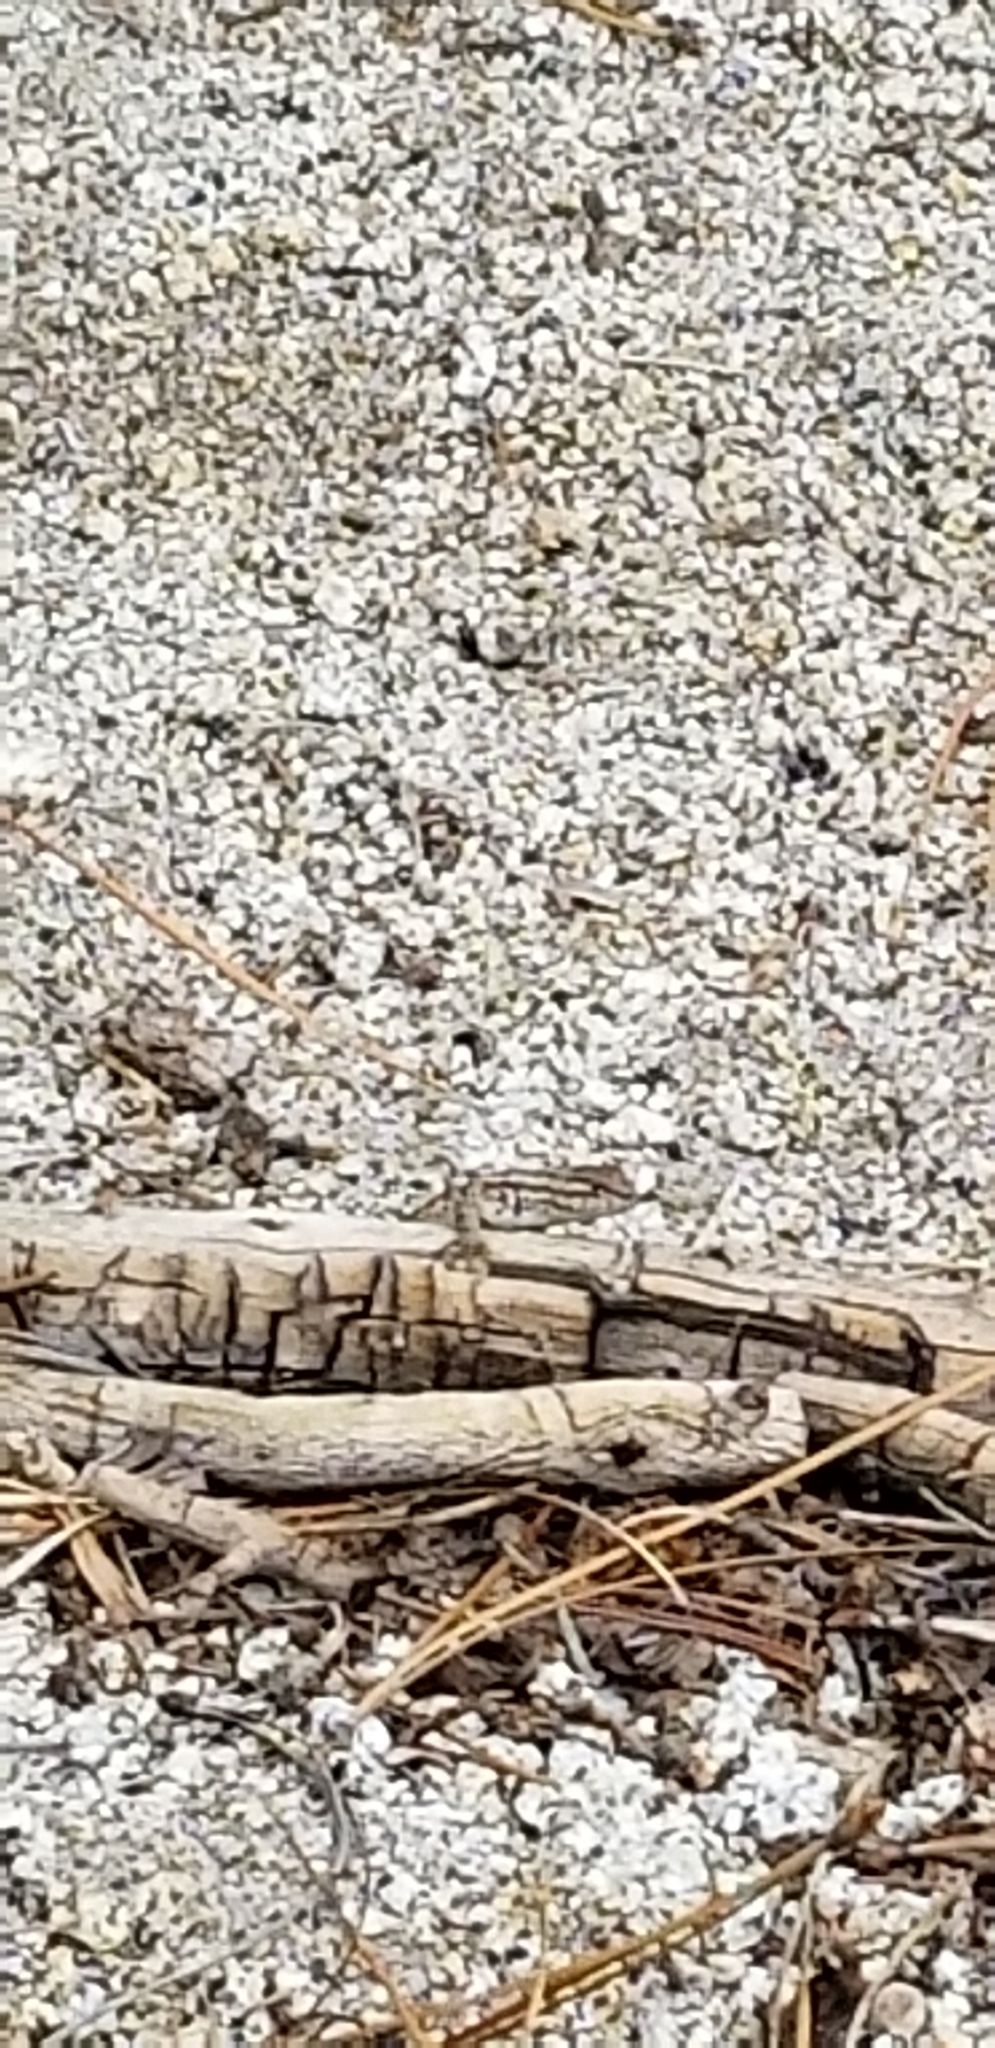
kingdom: Animalia
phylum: Chordata
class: Squamata
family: Phrynosomatidae
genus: Uta
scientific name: Uta stansburiana
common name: Side-blotched lizard
